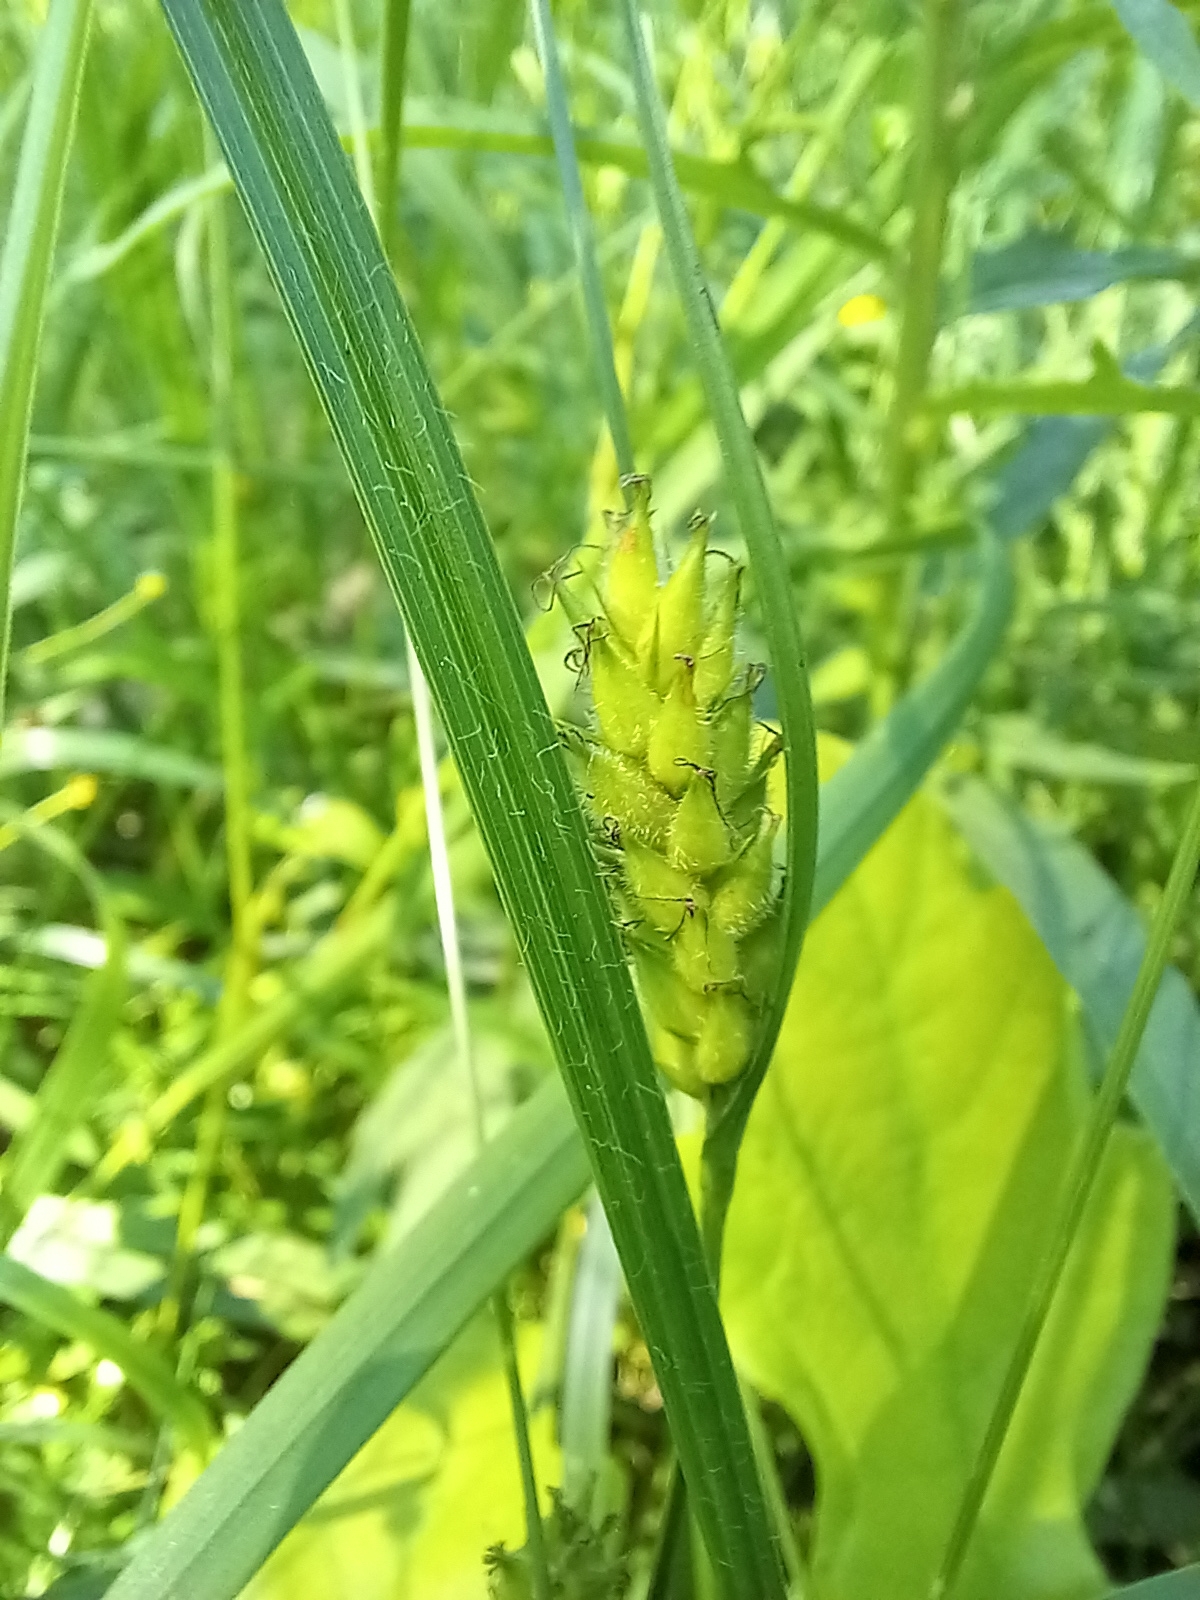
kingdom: Plantae
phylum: Tracheophyta
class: Liliopsida
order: Poales
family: Cyperaceae
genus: Carex
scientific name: Carex hirta
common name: Hairy sedge
